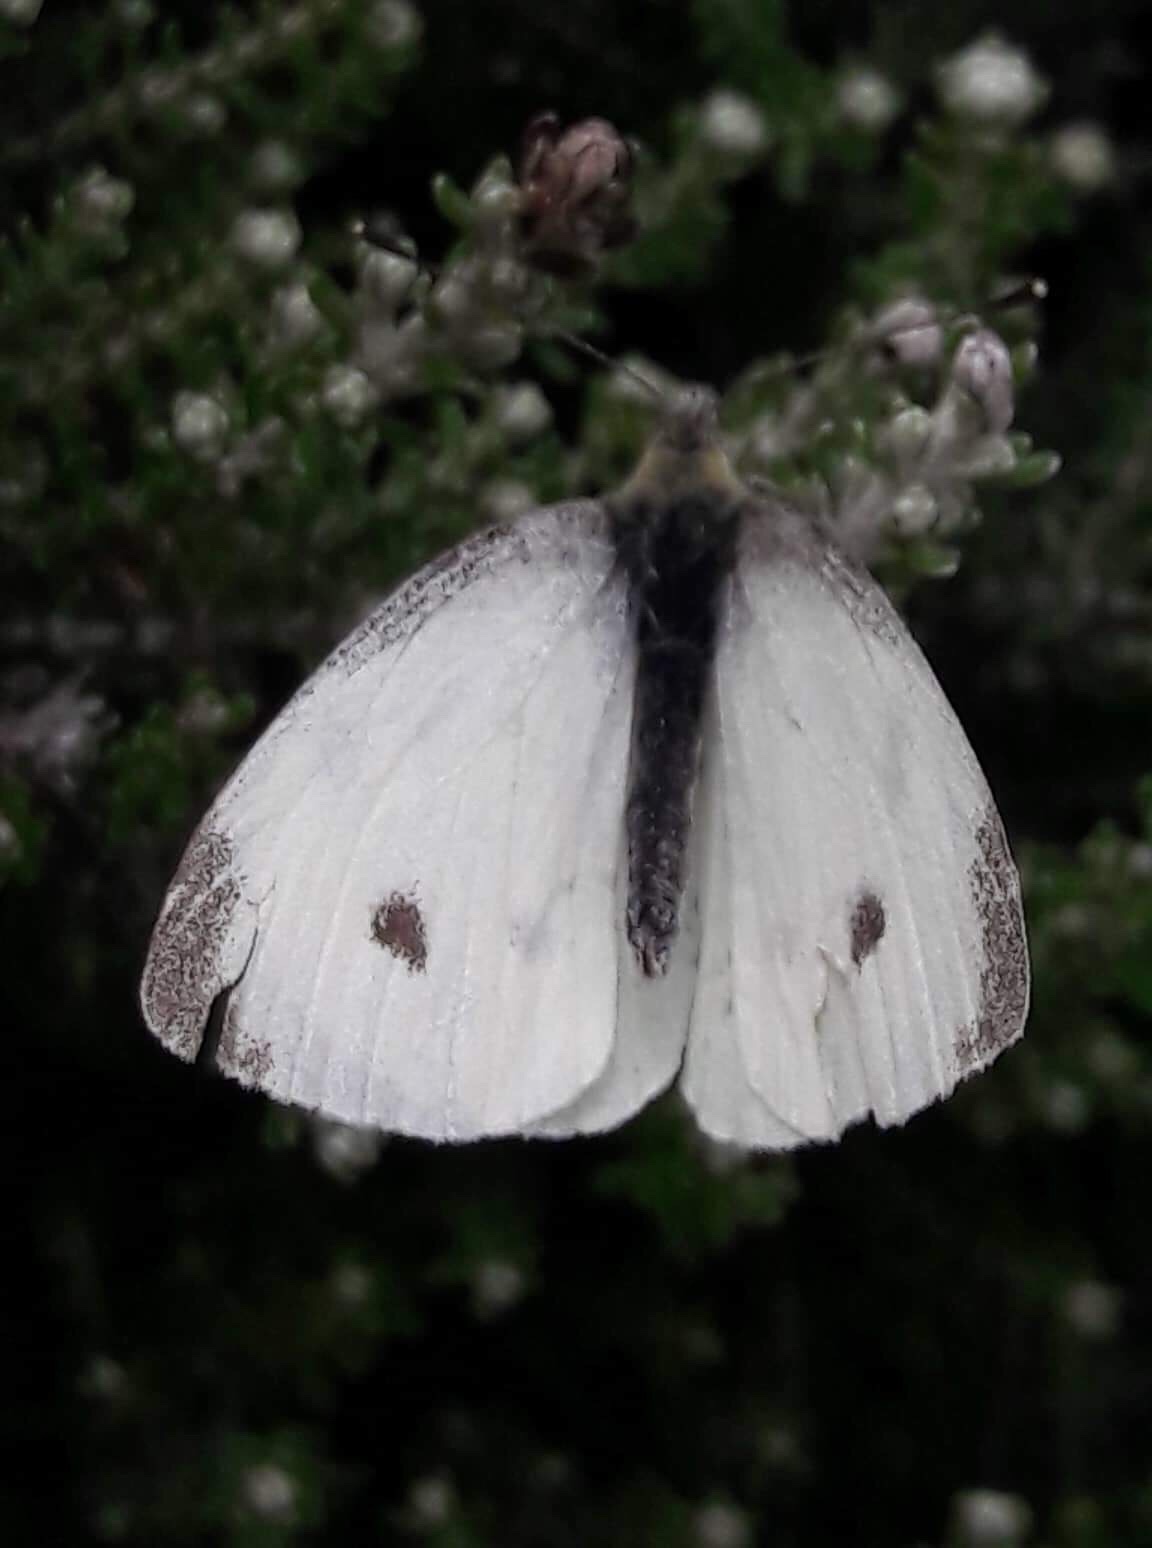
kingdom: Animalia
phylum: Arthropoda
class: Insecta
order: Lepidoptera
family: Pieridae
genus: Pieris
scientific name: Pieris rapae
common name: Small white
